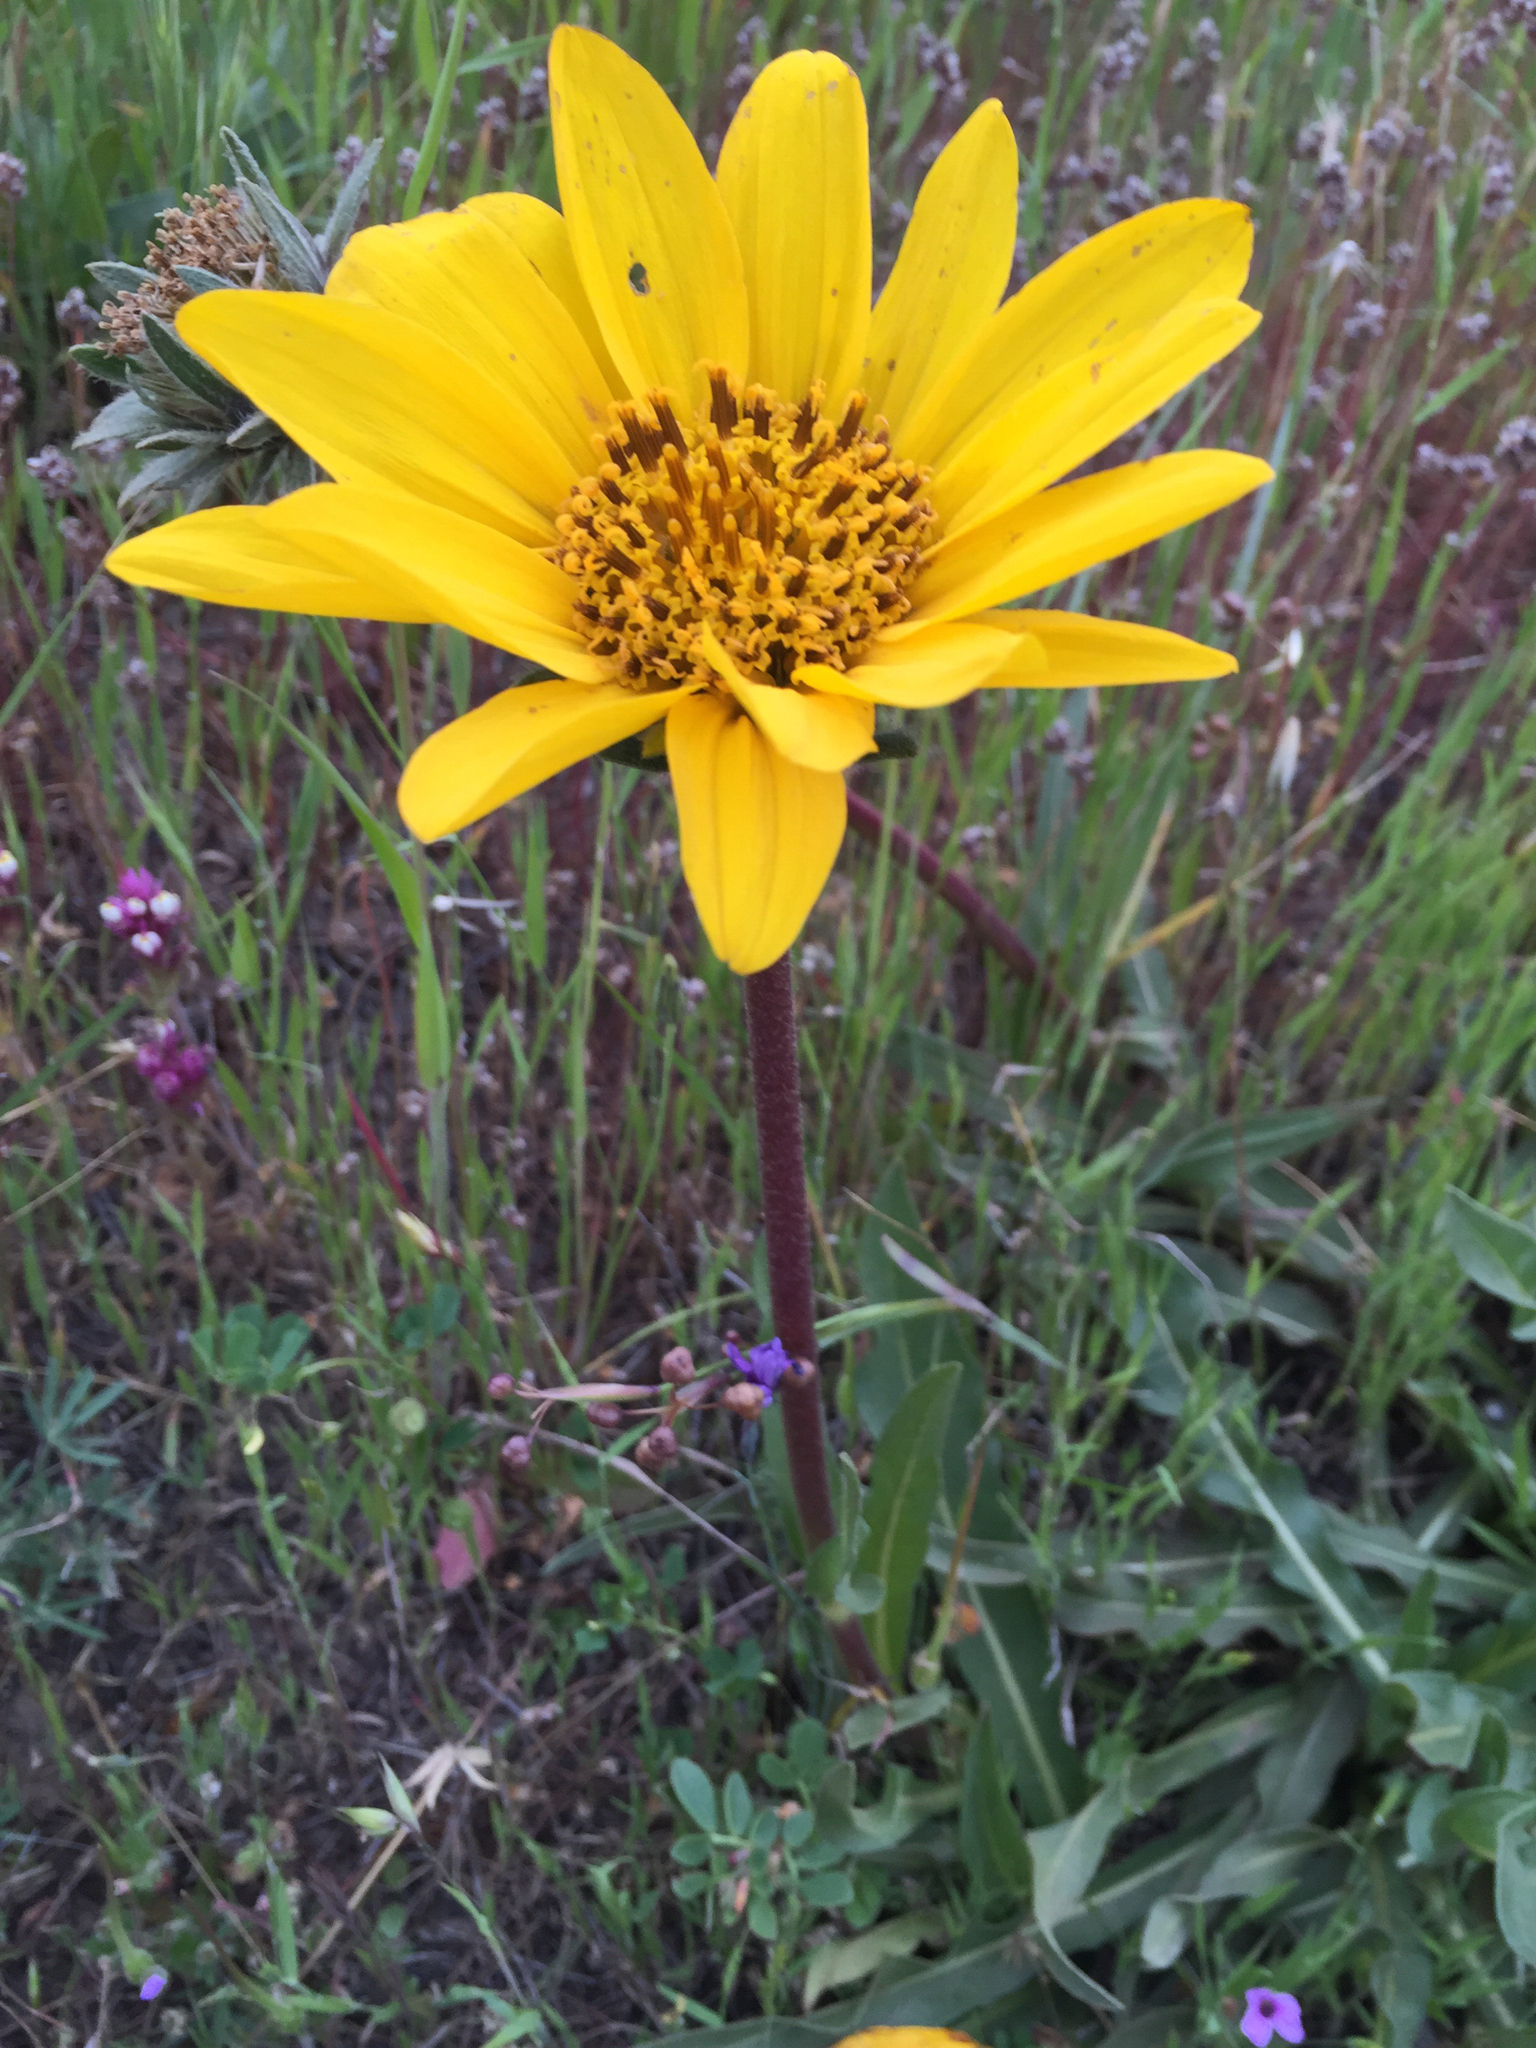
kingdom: Plantae
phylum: Tracheophyta
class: Magnoliopsida
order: Asterales
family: Asteraceae
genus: Wyethia
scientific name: Wyethia angustifolia
